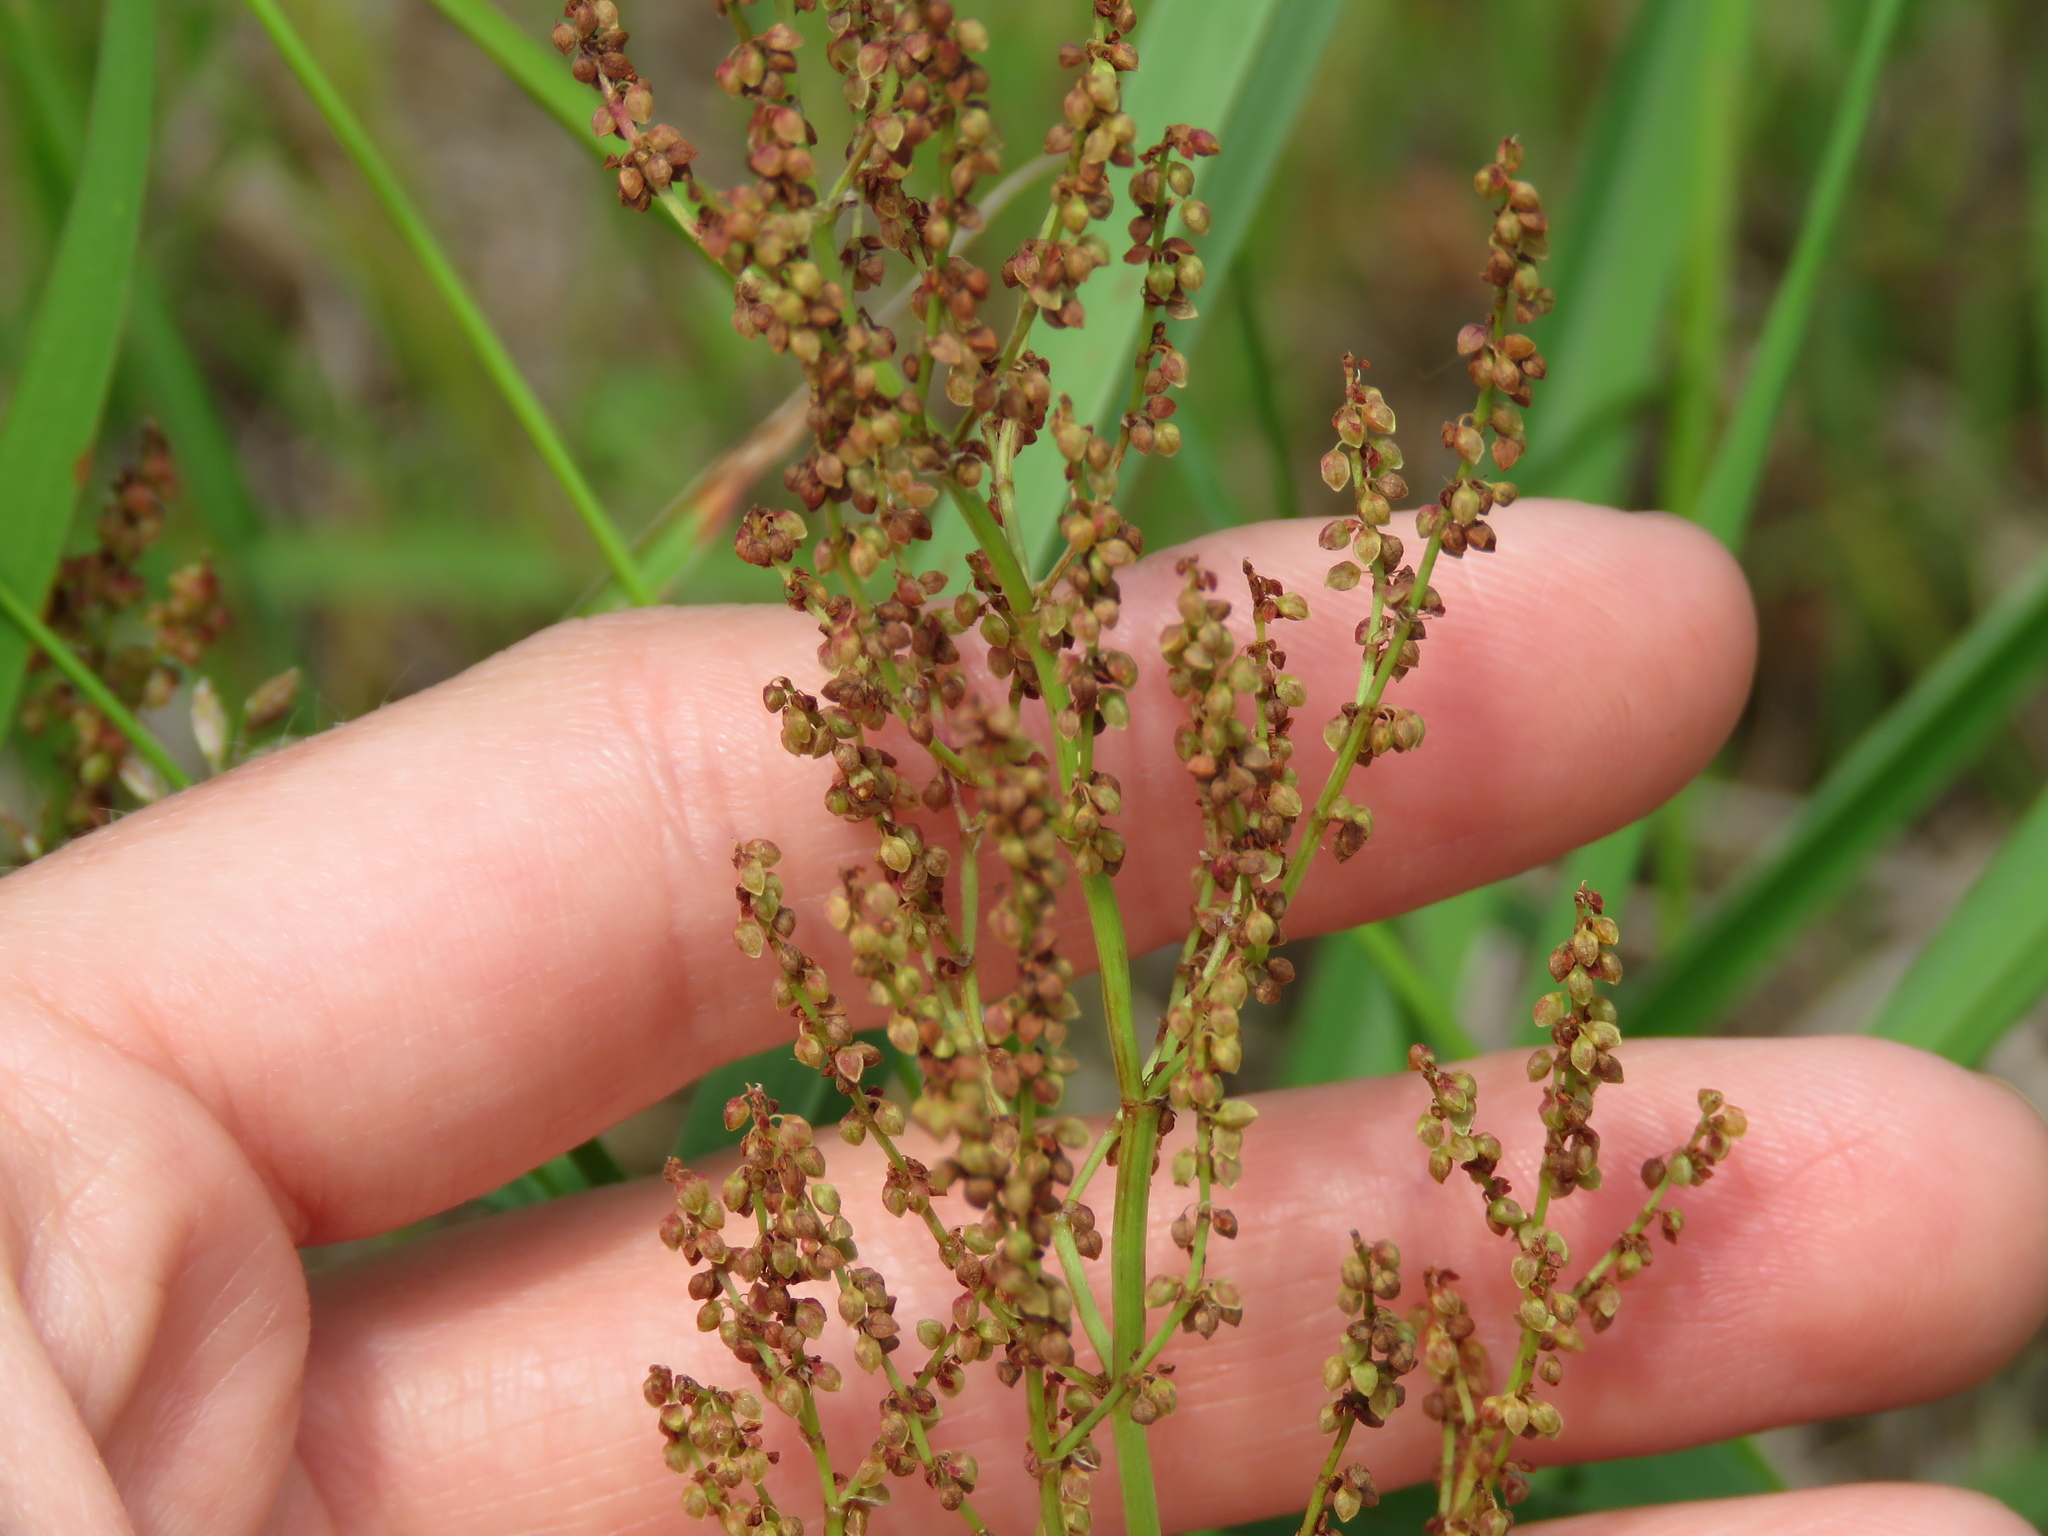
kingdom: Plantae
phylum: Tracheophyta
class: Magnoliopsida
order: Caryophyllales
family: Polygonaceae
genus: Rumex
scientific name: Rumex acetosella
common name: Common sheep sorrel
